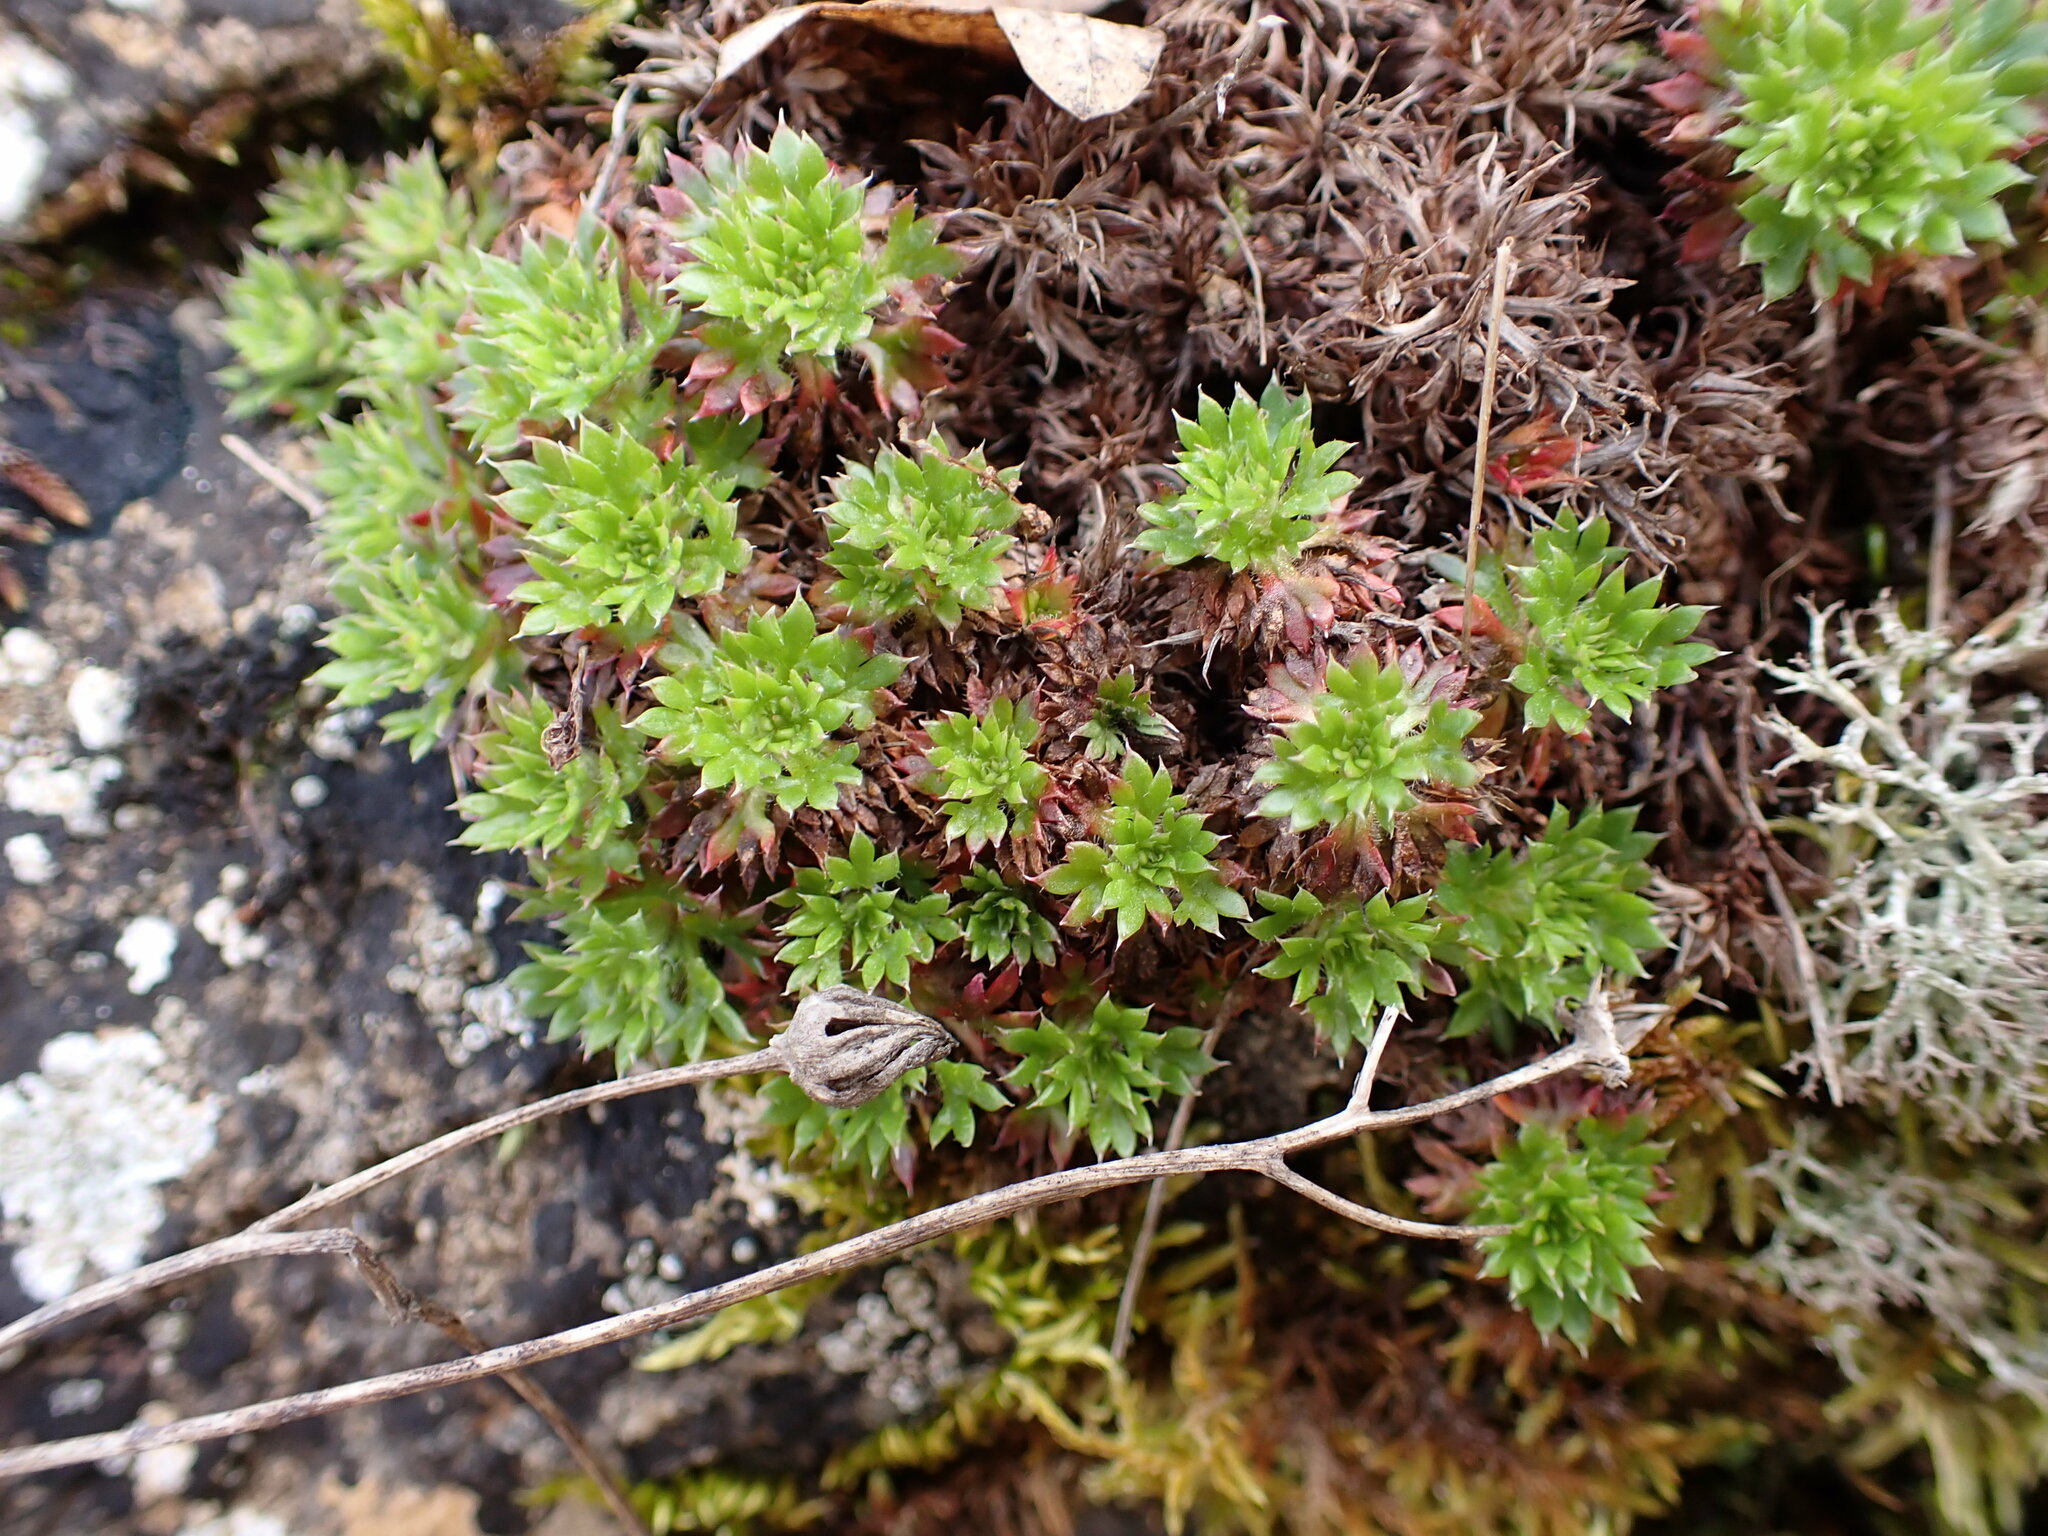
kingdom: Plantae
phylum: Tracheophyta
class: Magnoliopsida
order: Saxifragales
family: Saxifragaceae
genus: Saxifraga
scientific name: Saxifraga fragosoi
